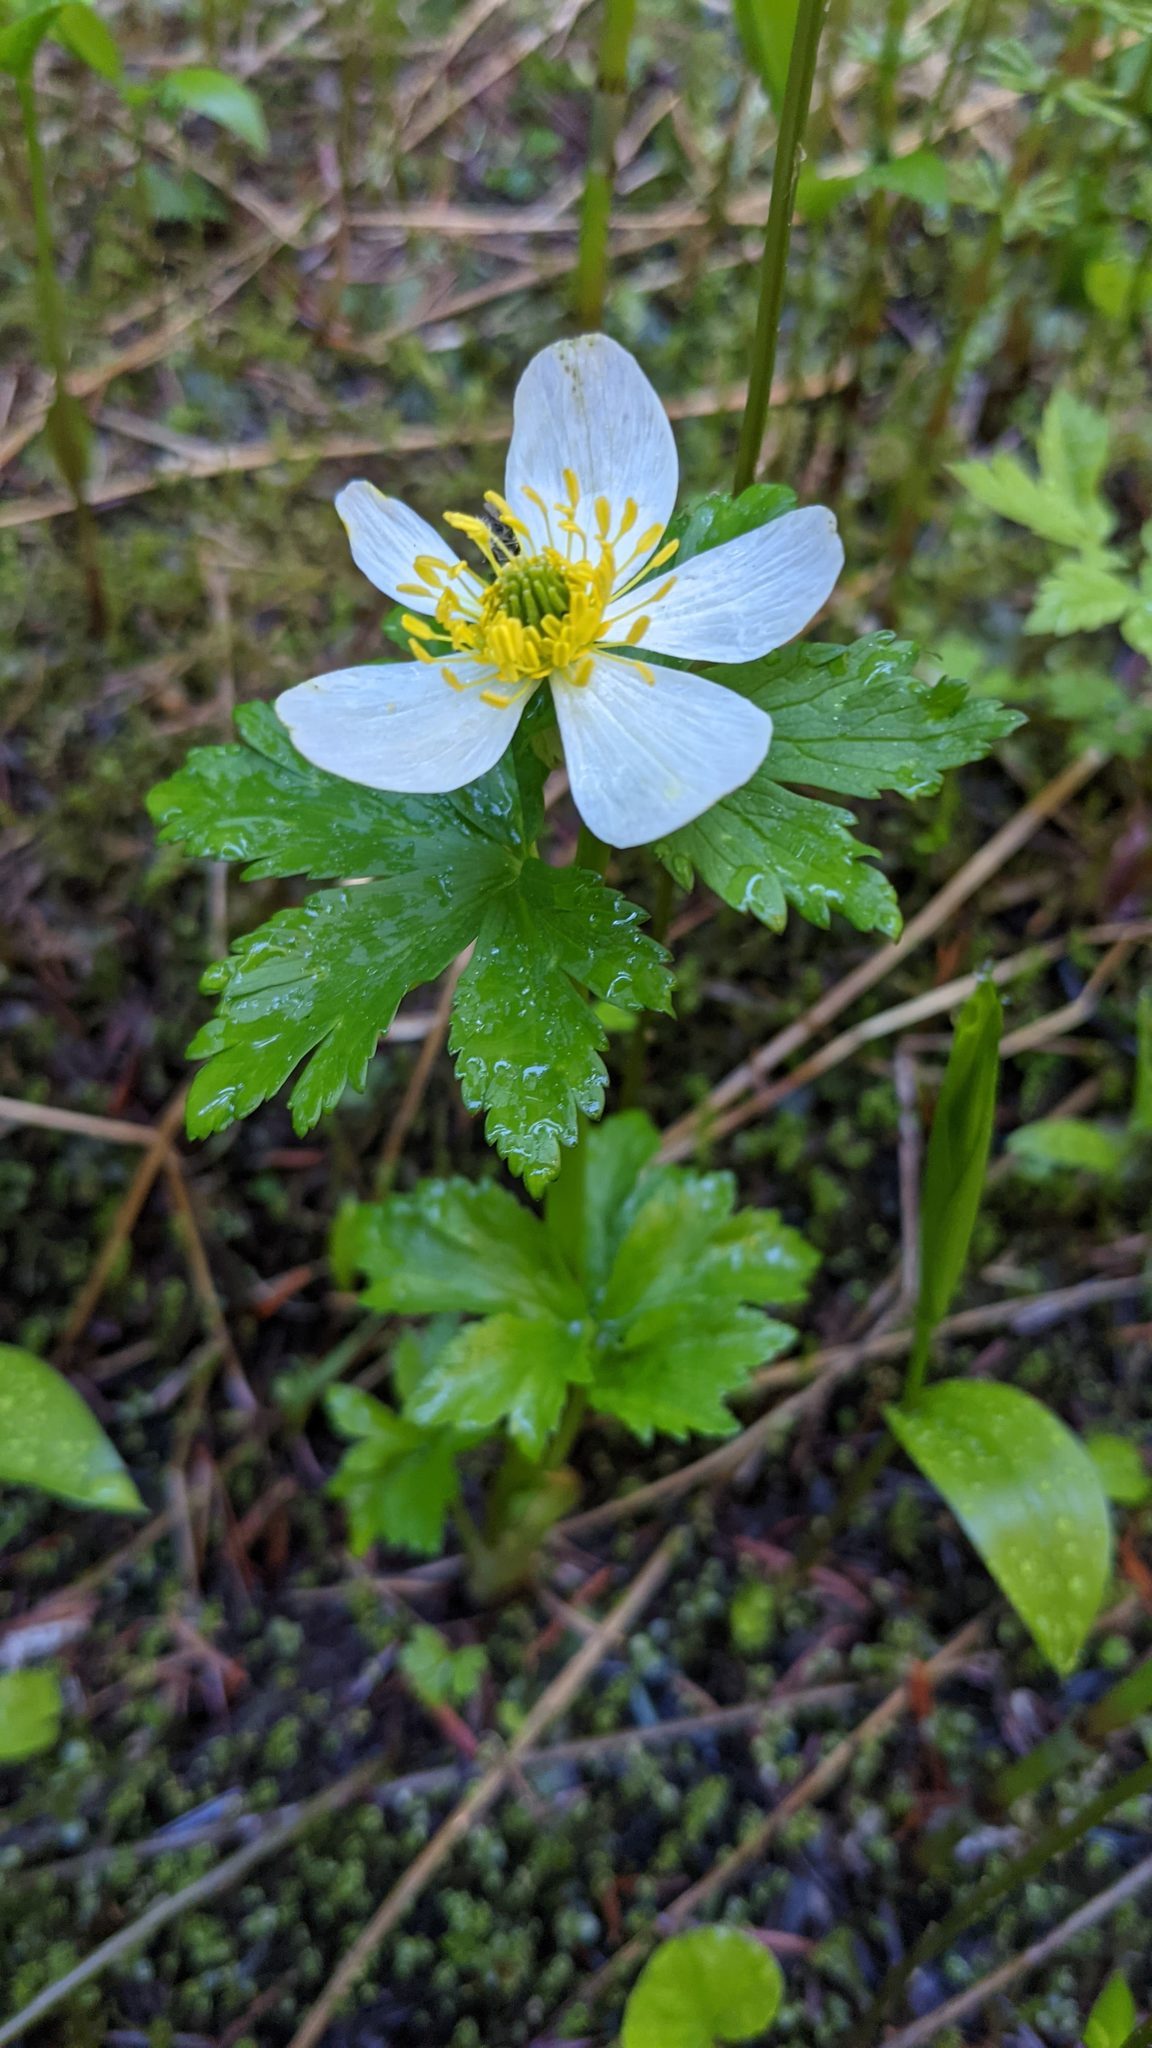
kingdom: Plantae
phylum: Tracheophyta
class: Magnoliopsida
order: Ranunculales
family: Ranunculaceae
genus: Trollius
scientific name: Trollius laxus
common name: American globeflower
